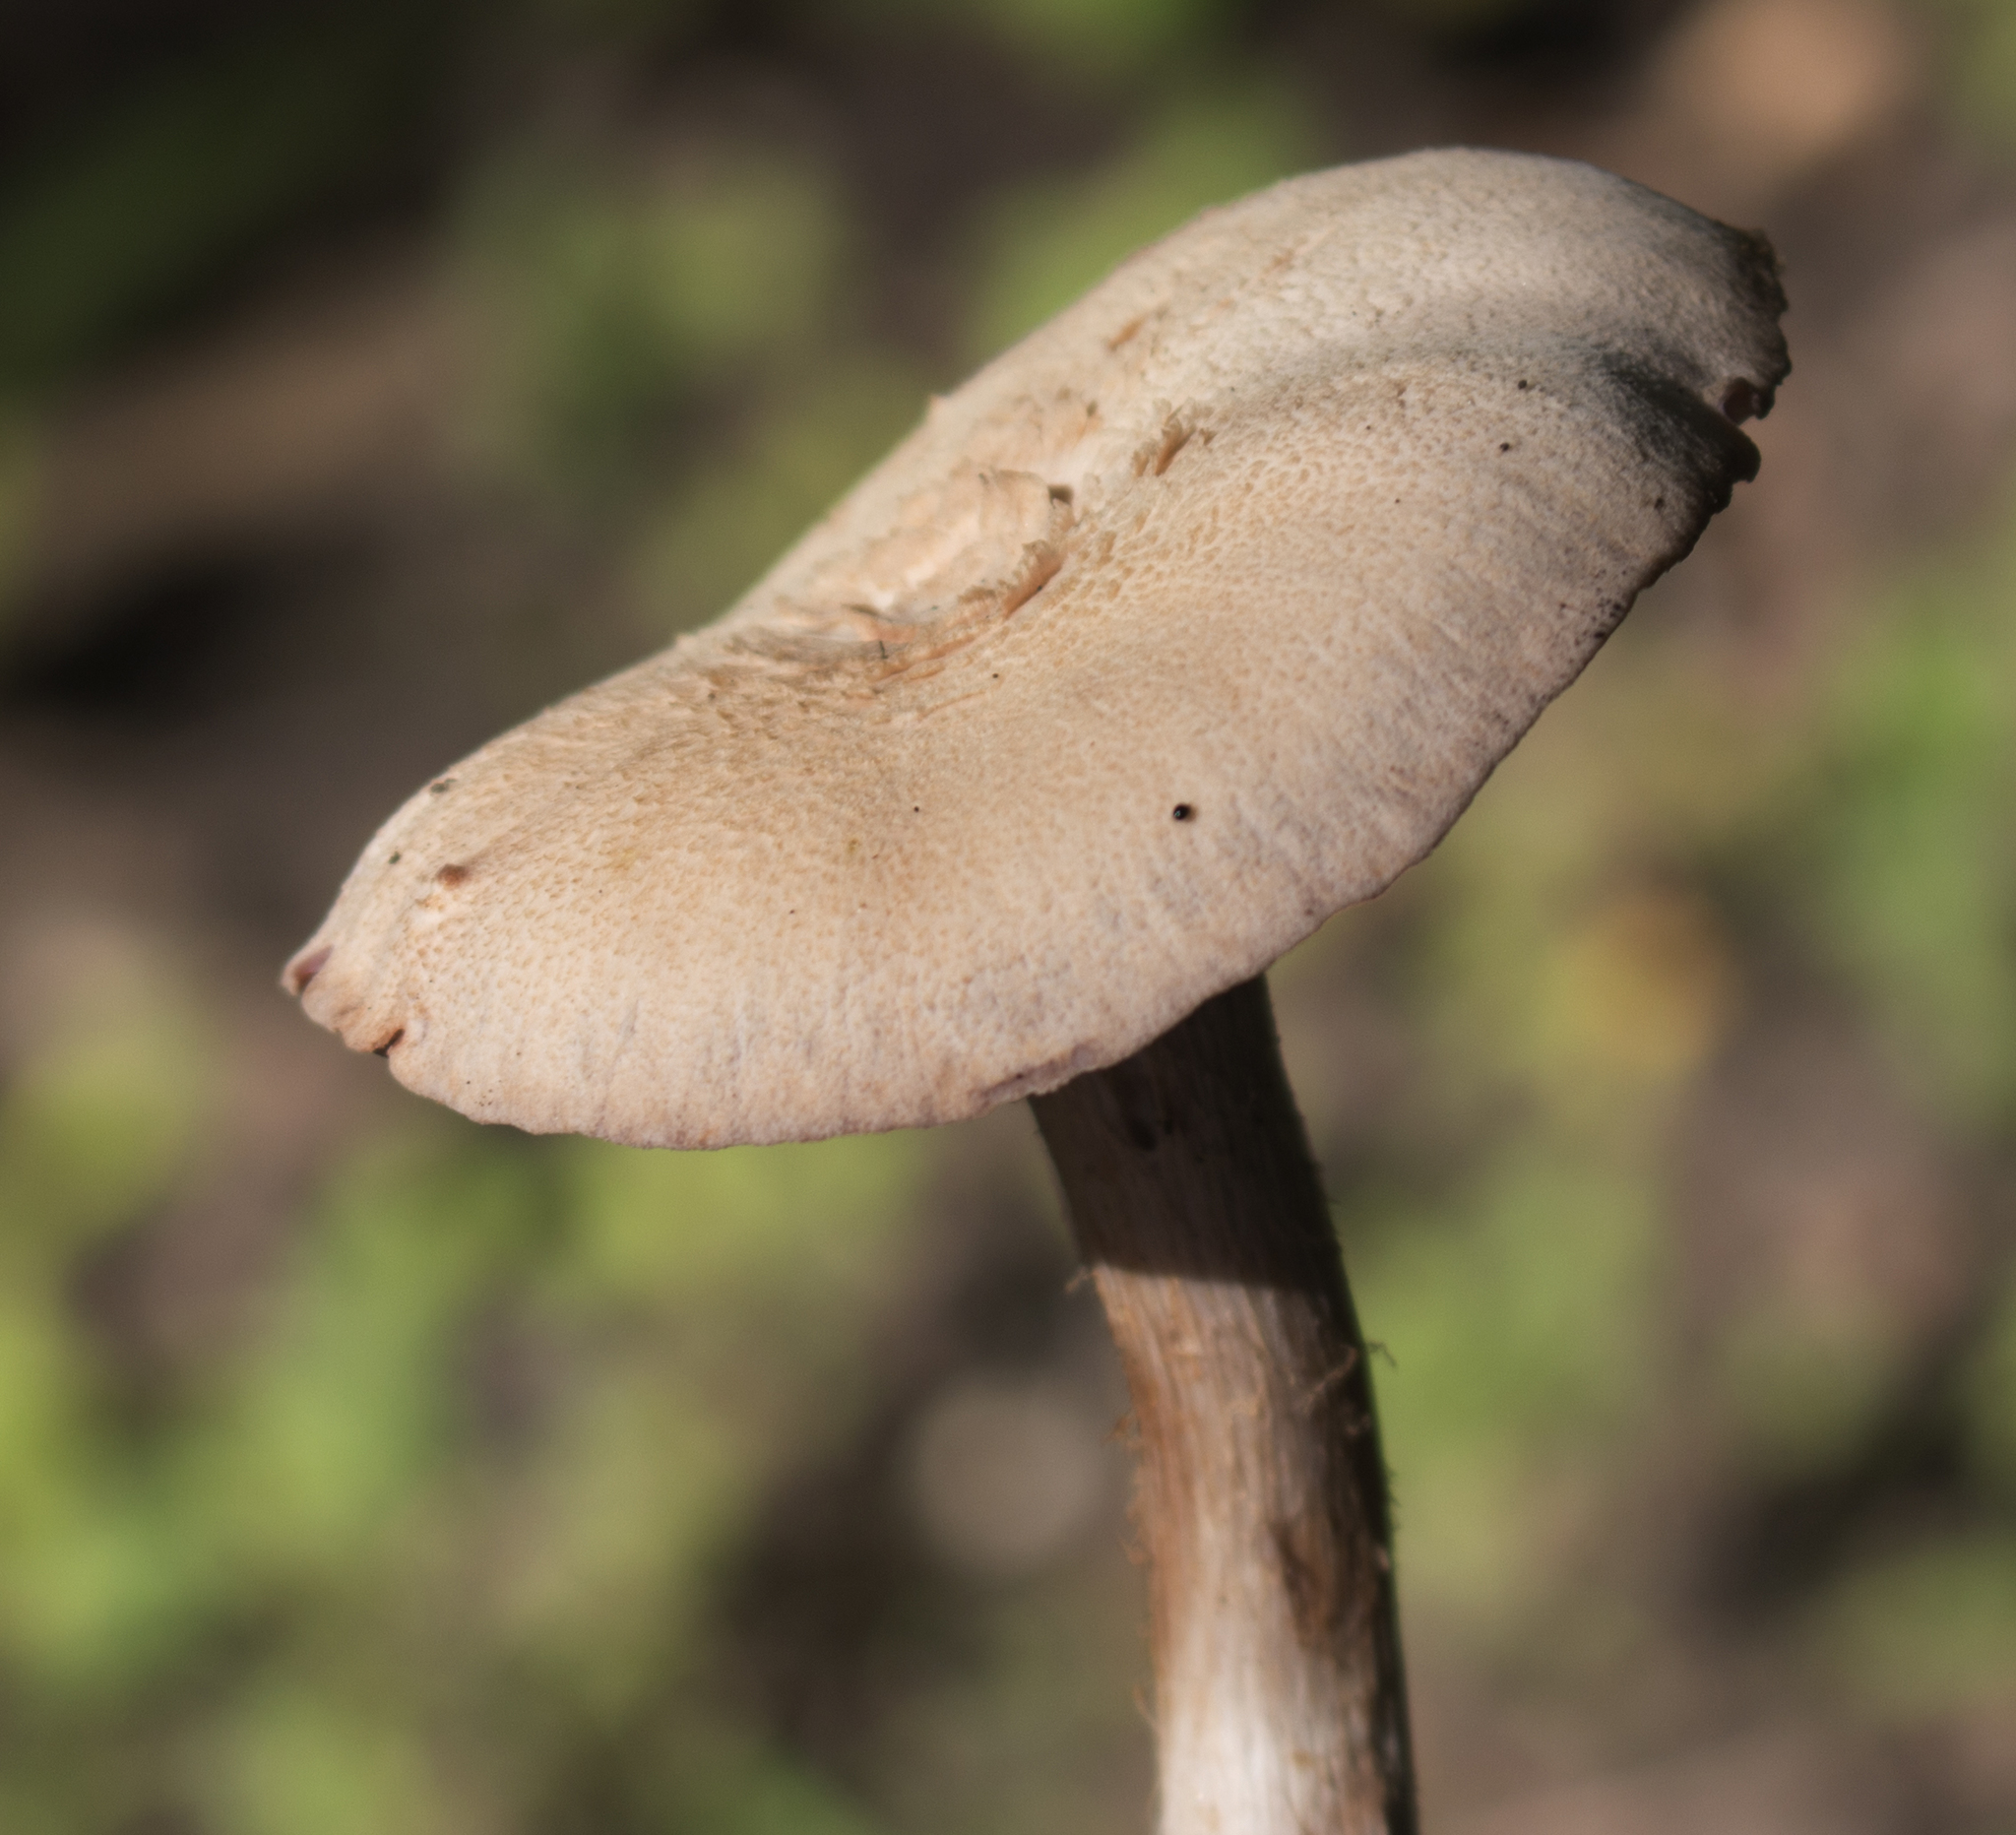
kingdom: Fungi
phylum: Basidiomycota
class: Agaricomycetes
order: Agaricales
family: Hydnangiaceae
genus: Laccaria
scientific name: Laccaria ochropurpurea
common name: Purple laccaria
